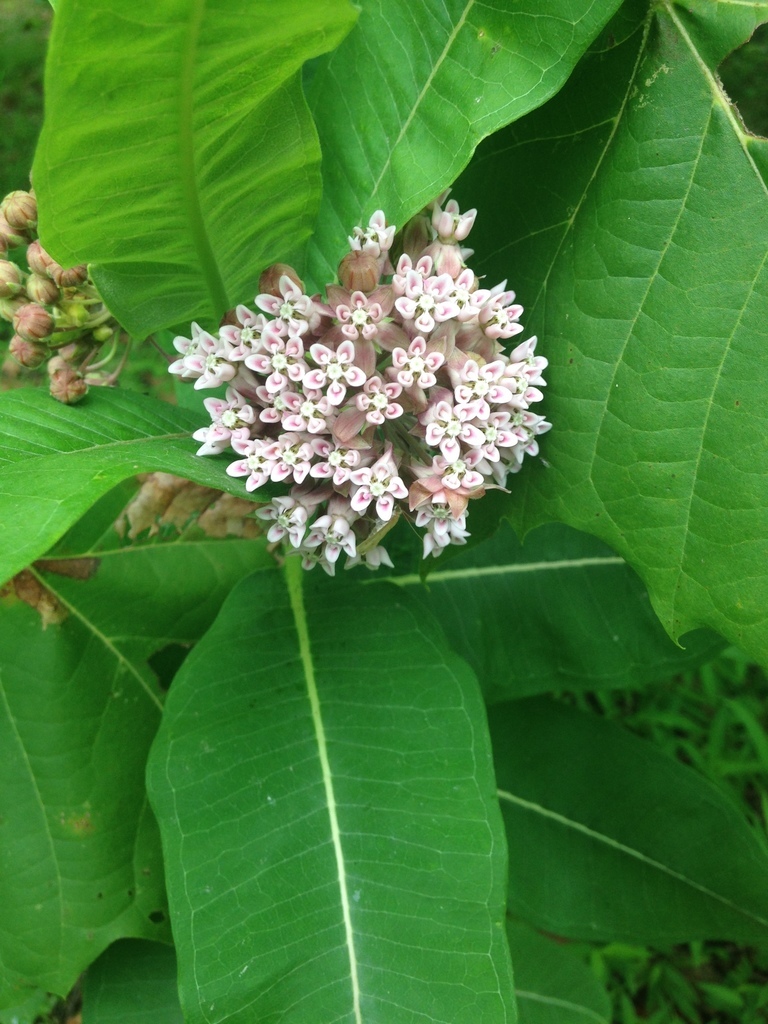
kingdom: Plantae
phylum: Tracheophyta
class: Magnoliopsida
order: Gentianales
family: Apocynaceae
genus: Asclepias
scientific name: Asclepias syriaca
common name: Common milkweed
